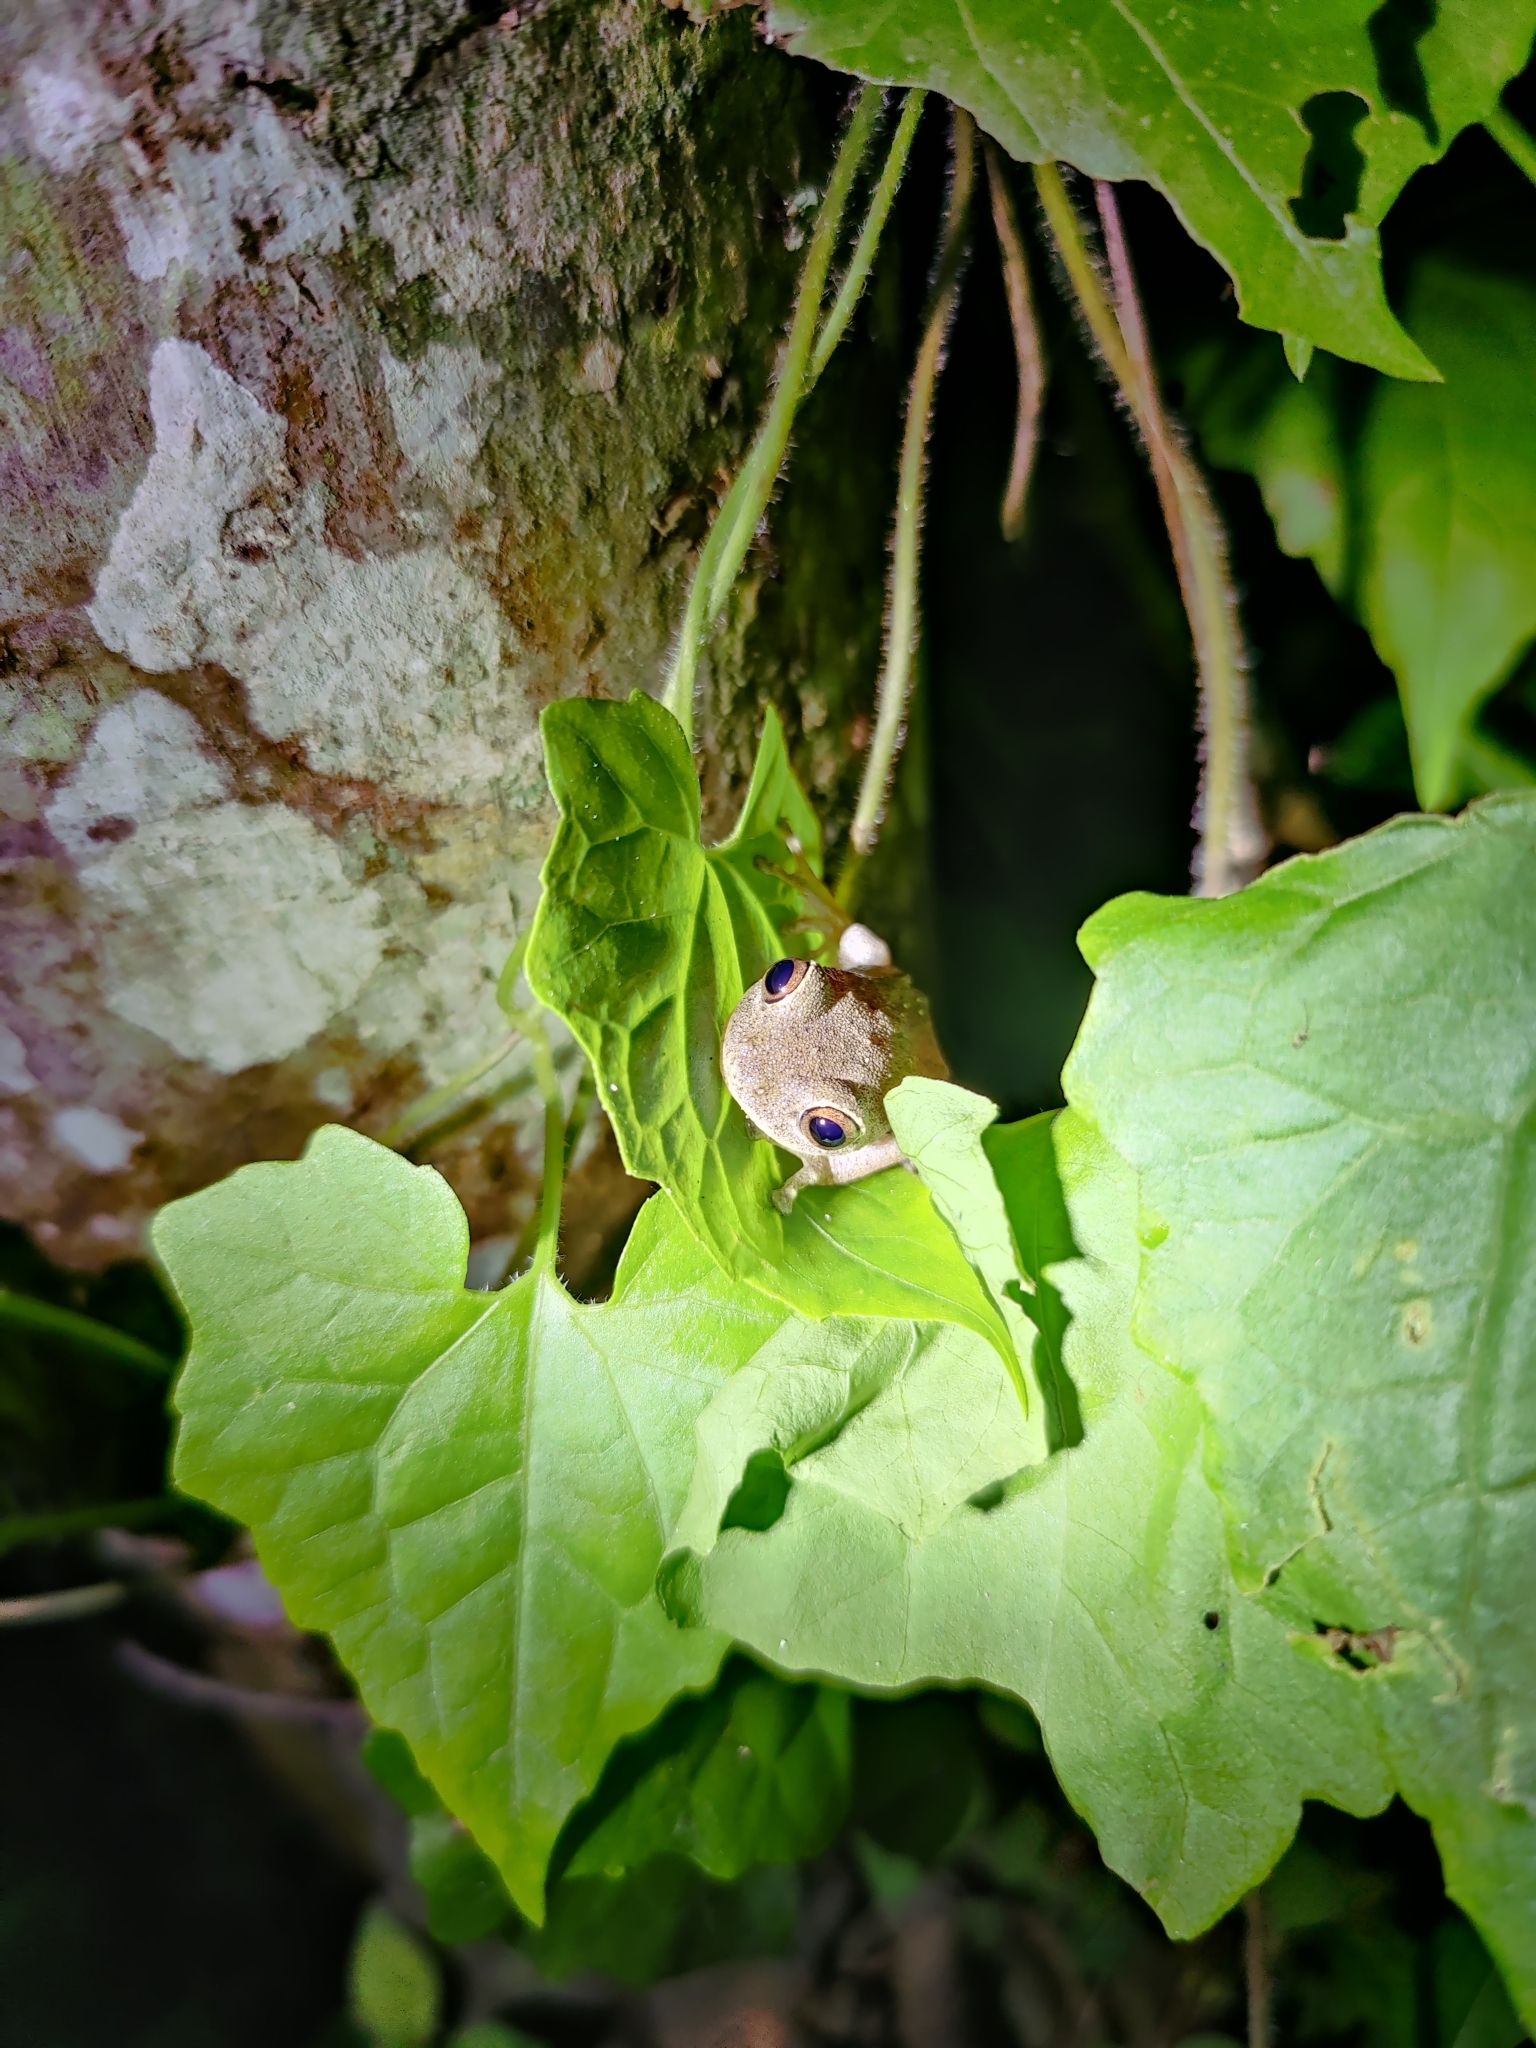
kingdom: Animalia
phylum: Chordata
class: Amphibia
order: Anura
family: Rhacophoridae
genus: Raorchestes
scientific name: Raorchestes ponmudi
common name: Large ponmudi bush frog
